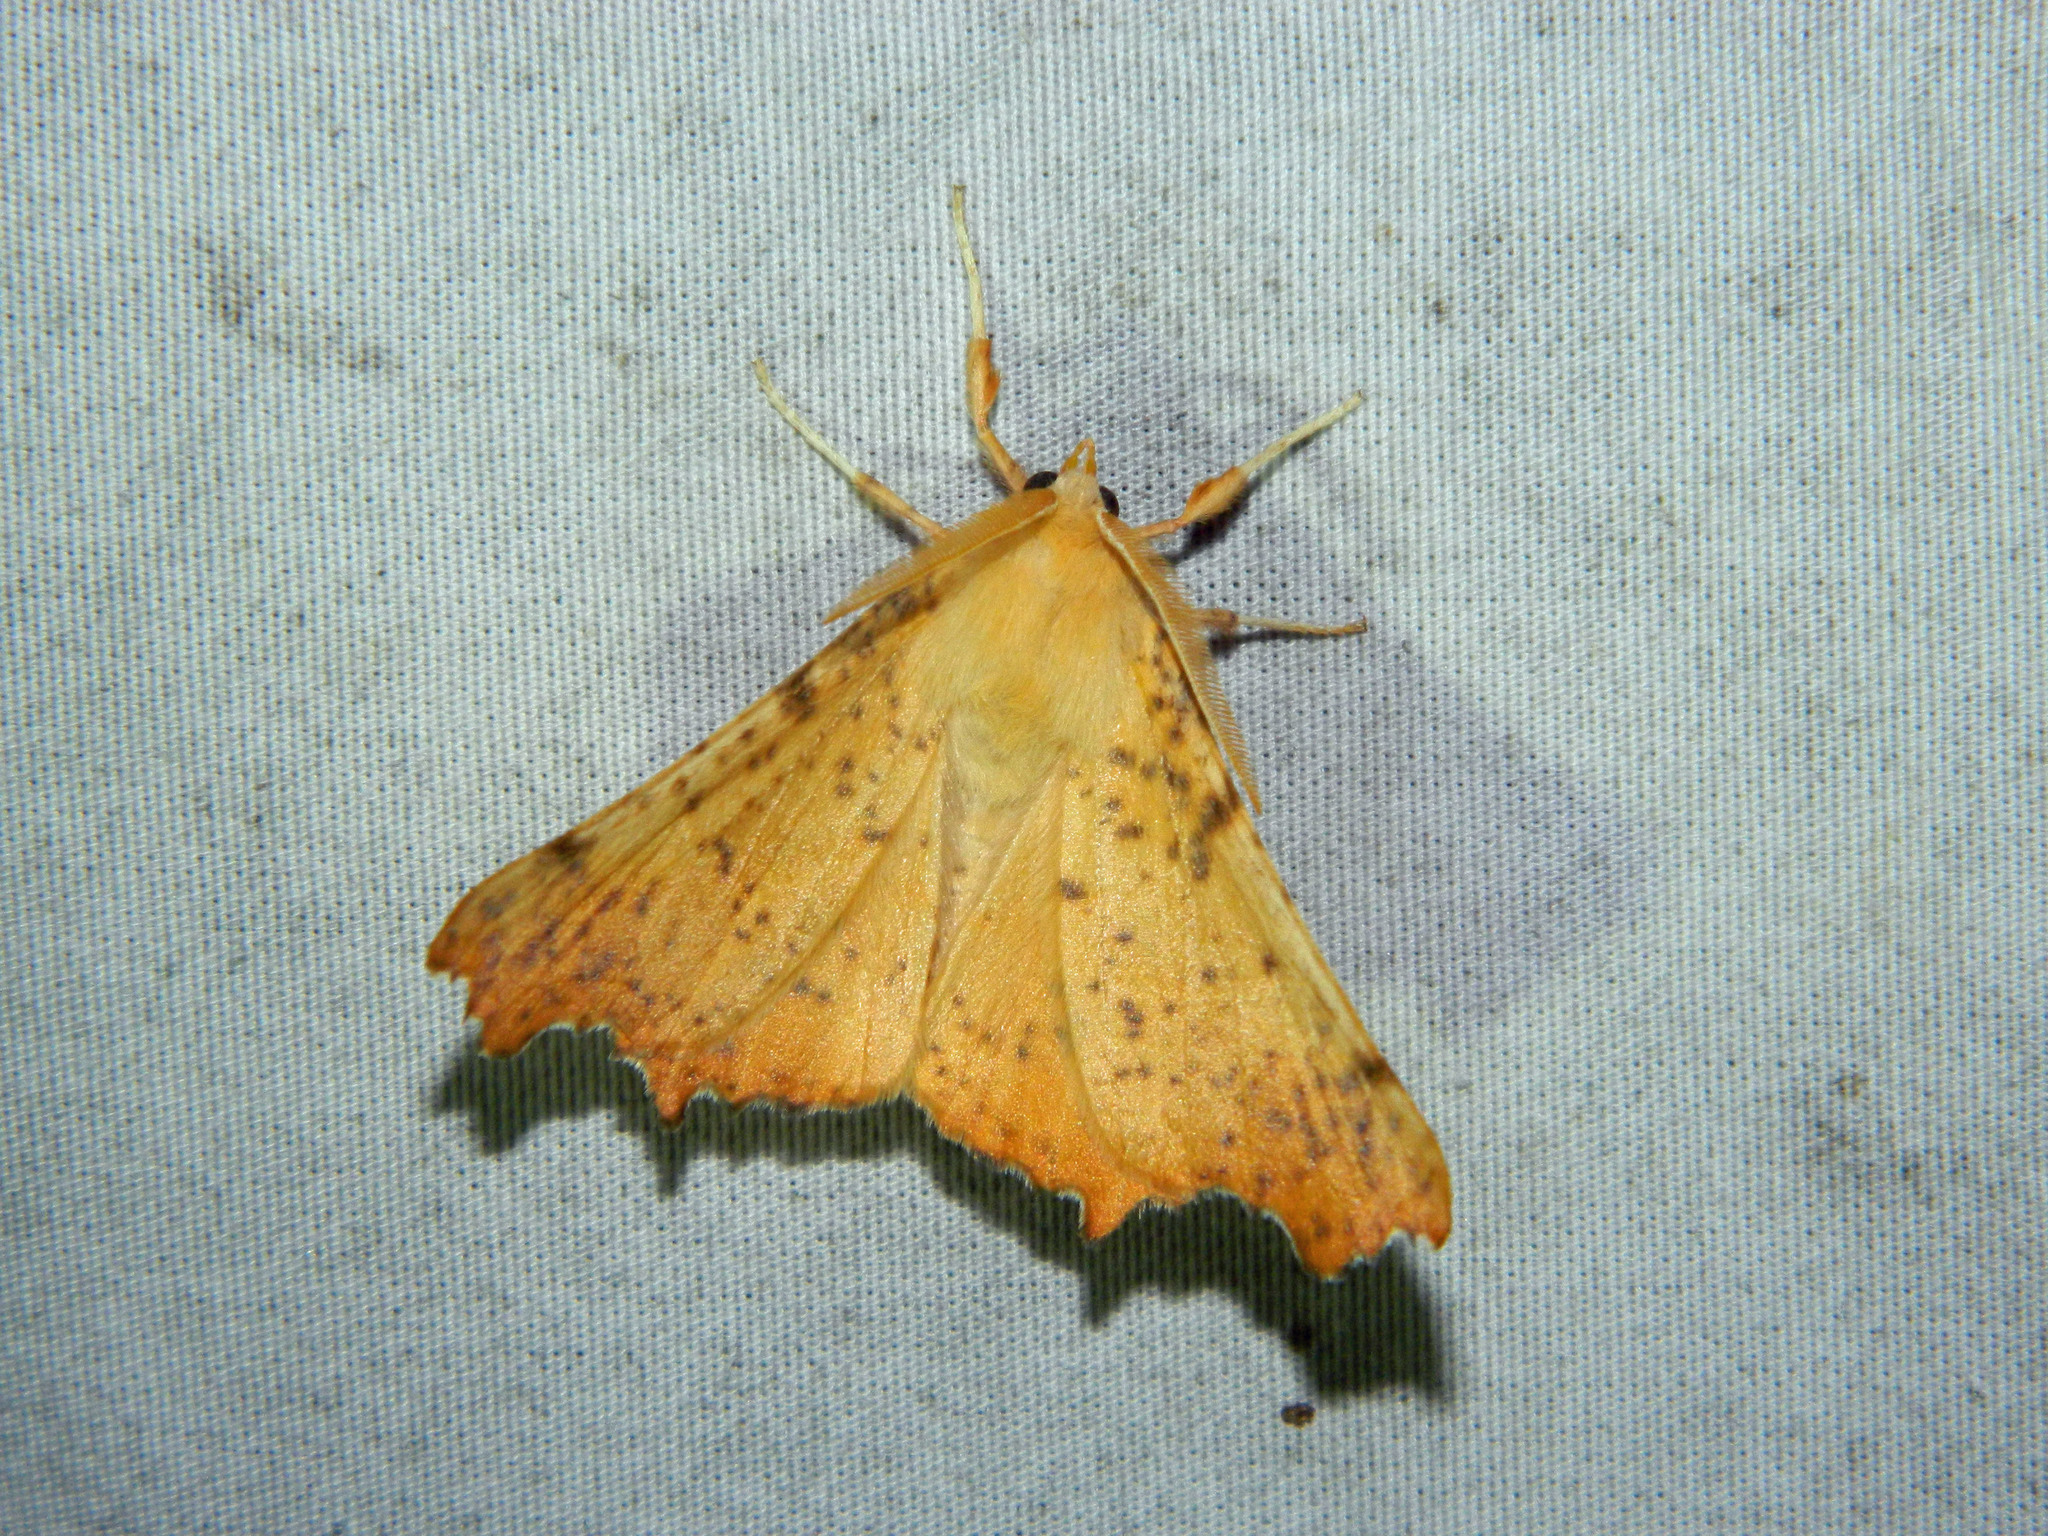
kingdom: Animalia
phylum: Arthropoda
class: Insecta
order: Lepidoptera
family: Geometridae
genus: Ennomos
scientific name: Ennomos magnaria
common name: Maple spanworm
